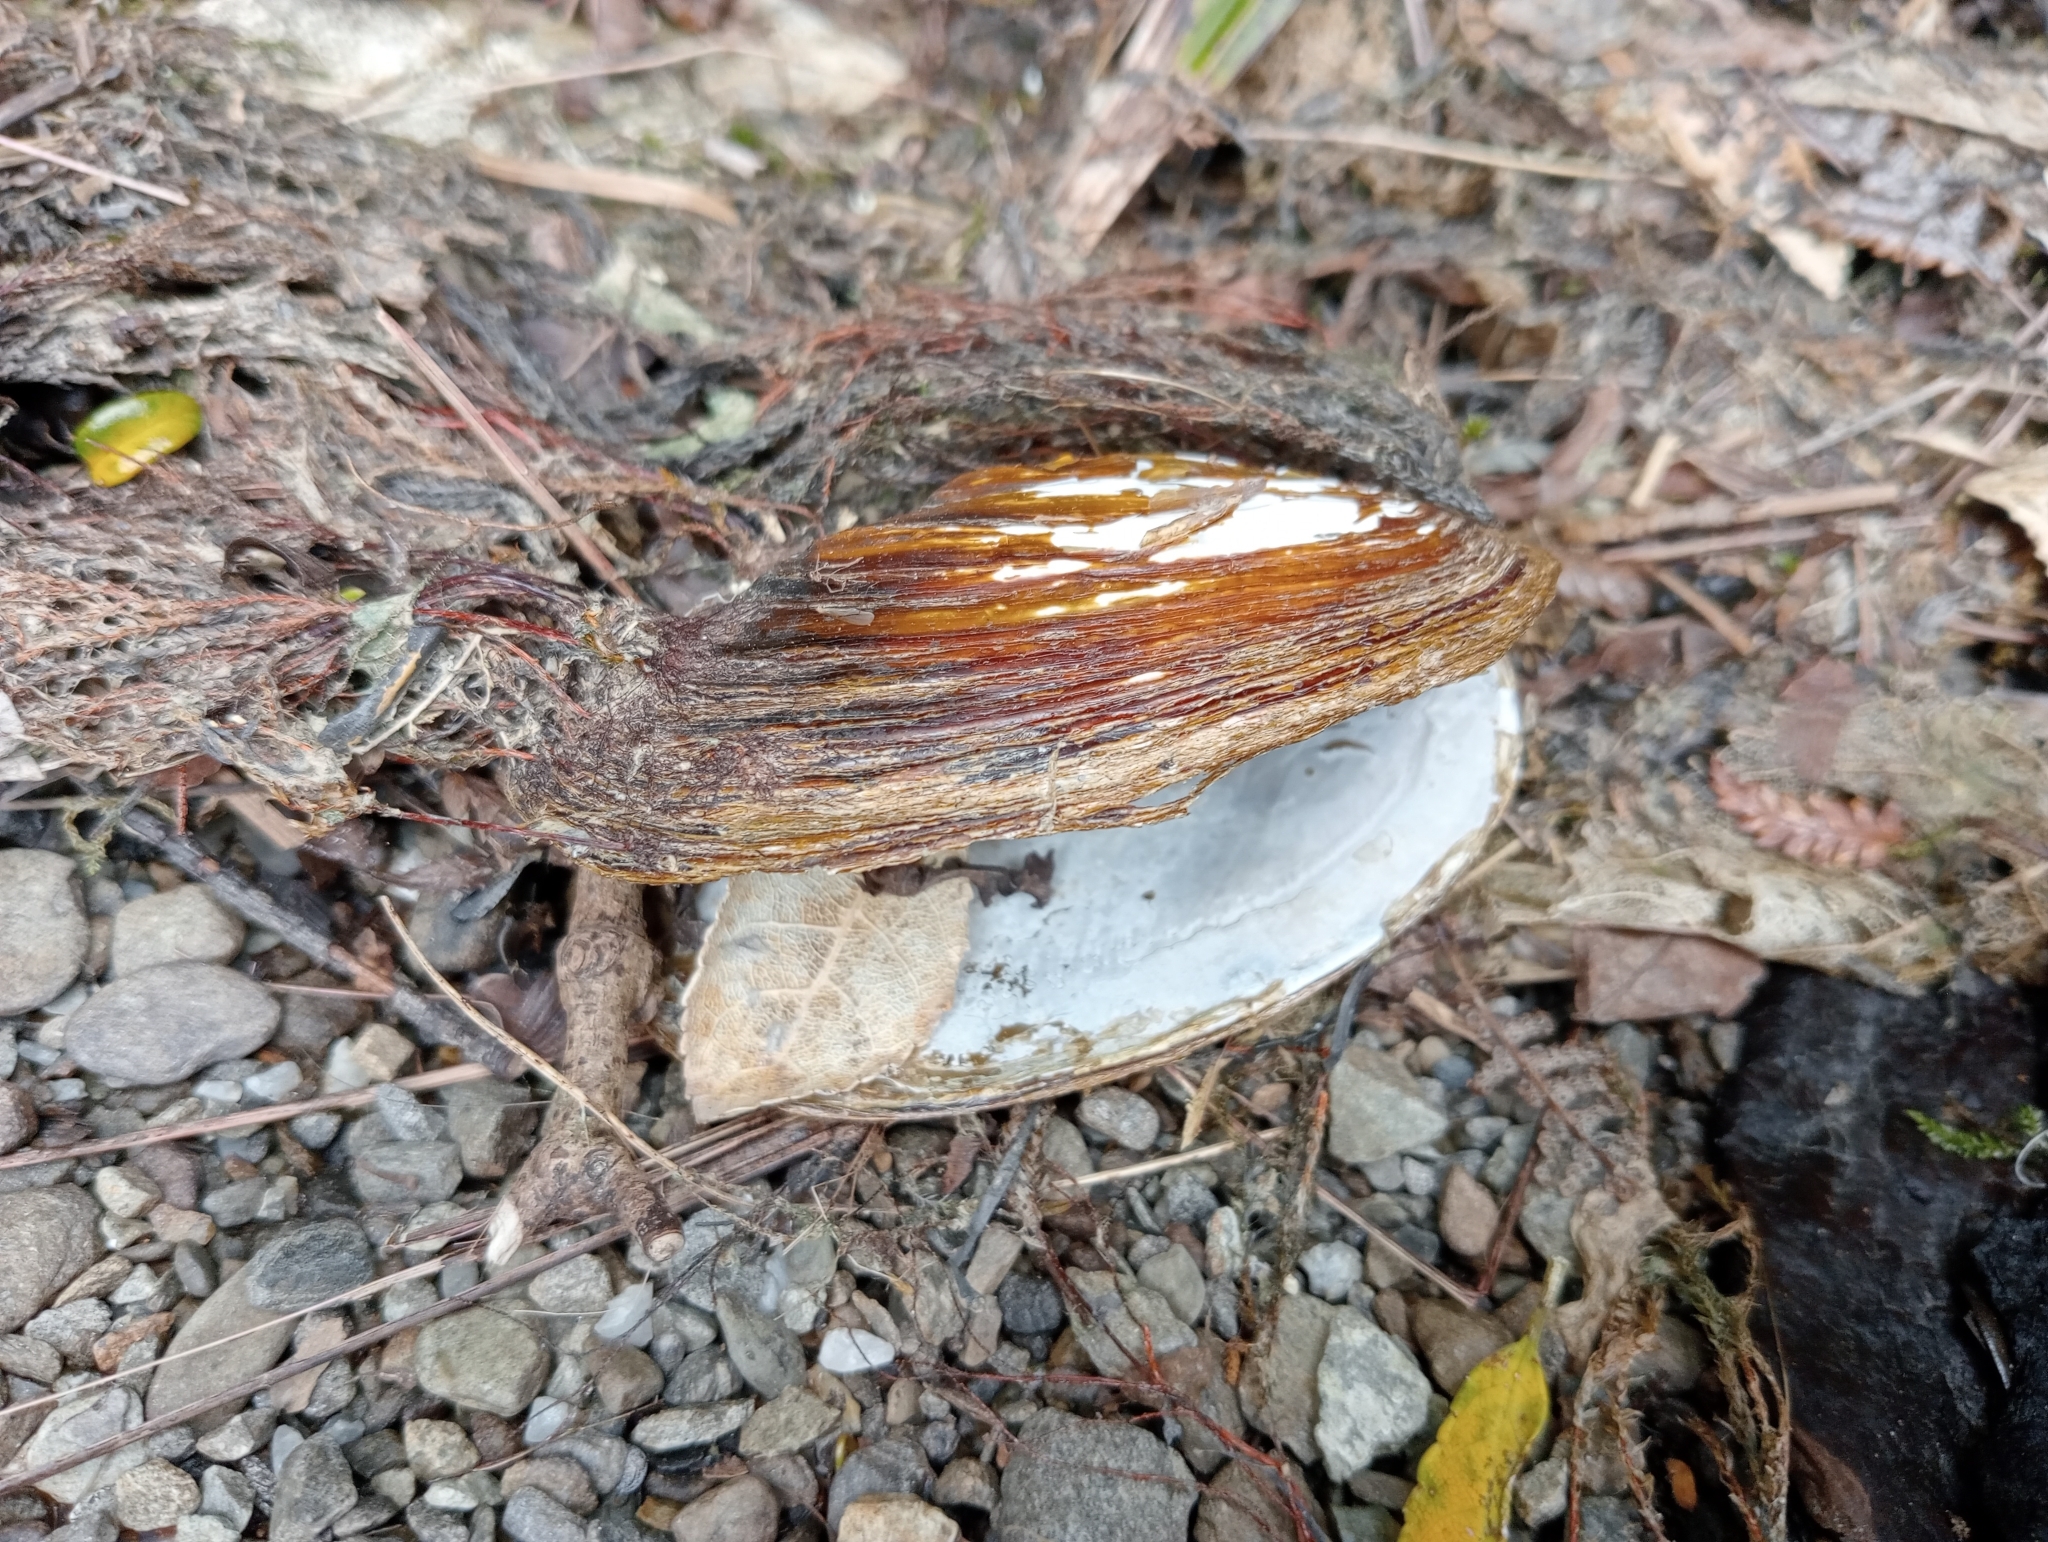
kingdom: Animalia
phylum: Mollusca
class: Bivalvia
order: Unionida
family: Hyriidae
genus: Echyridella
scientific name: Echyridella menziesii
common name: New zealand freshwater mussel
